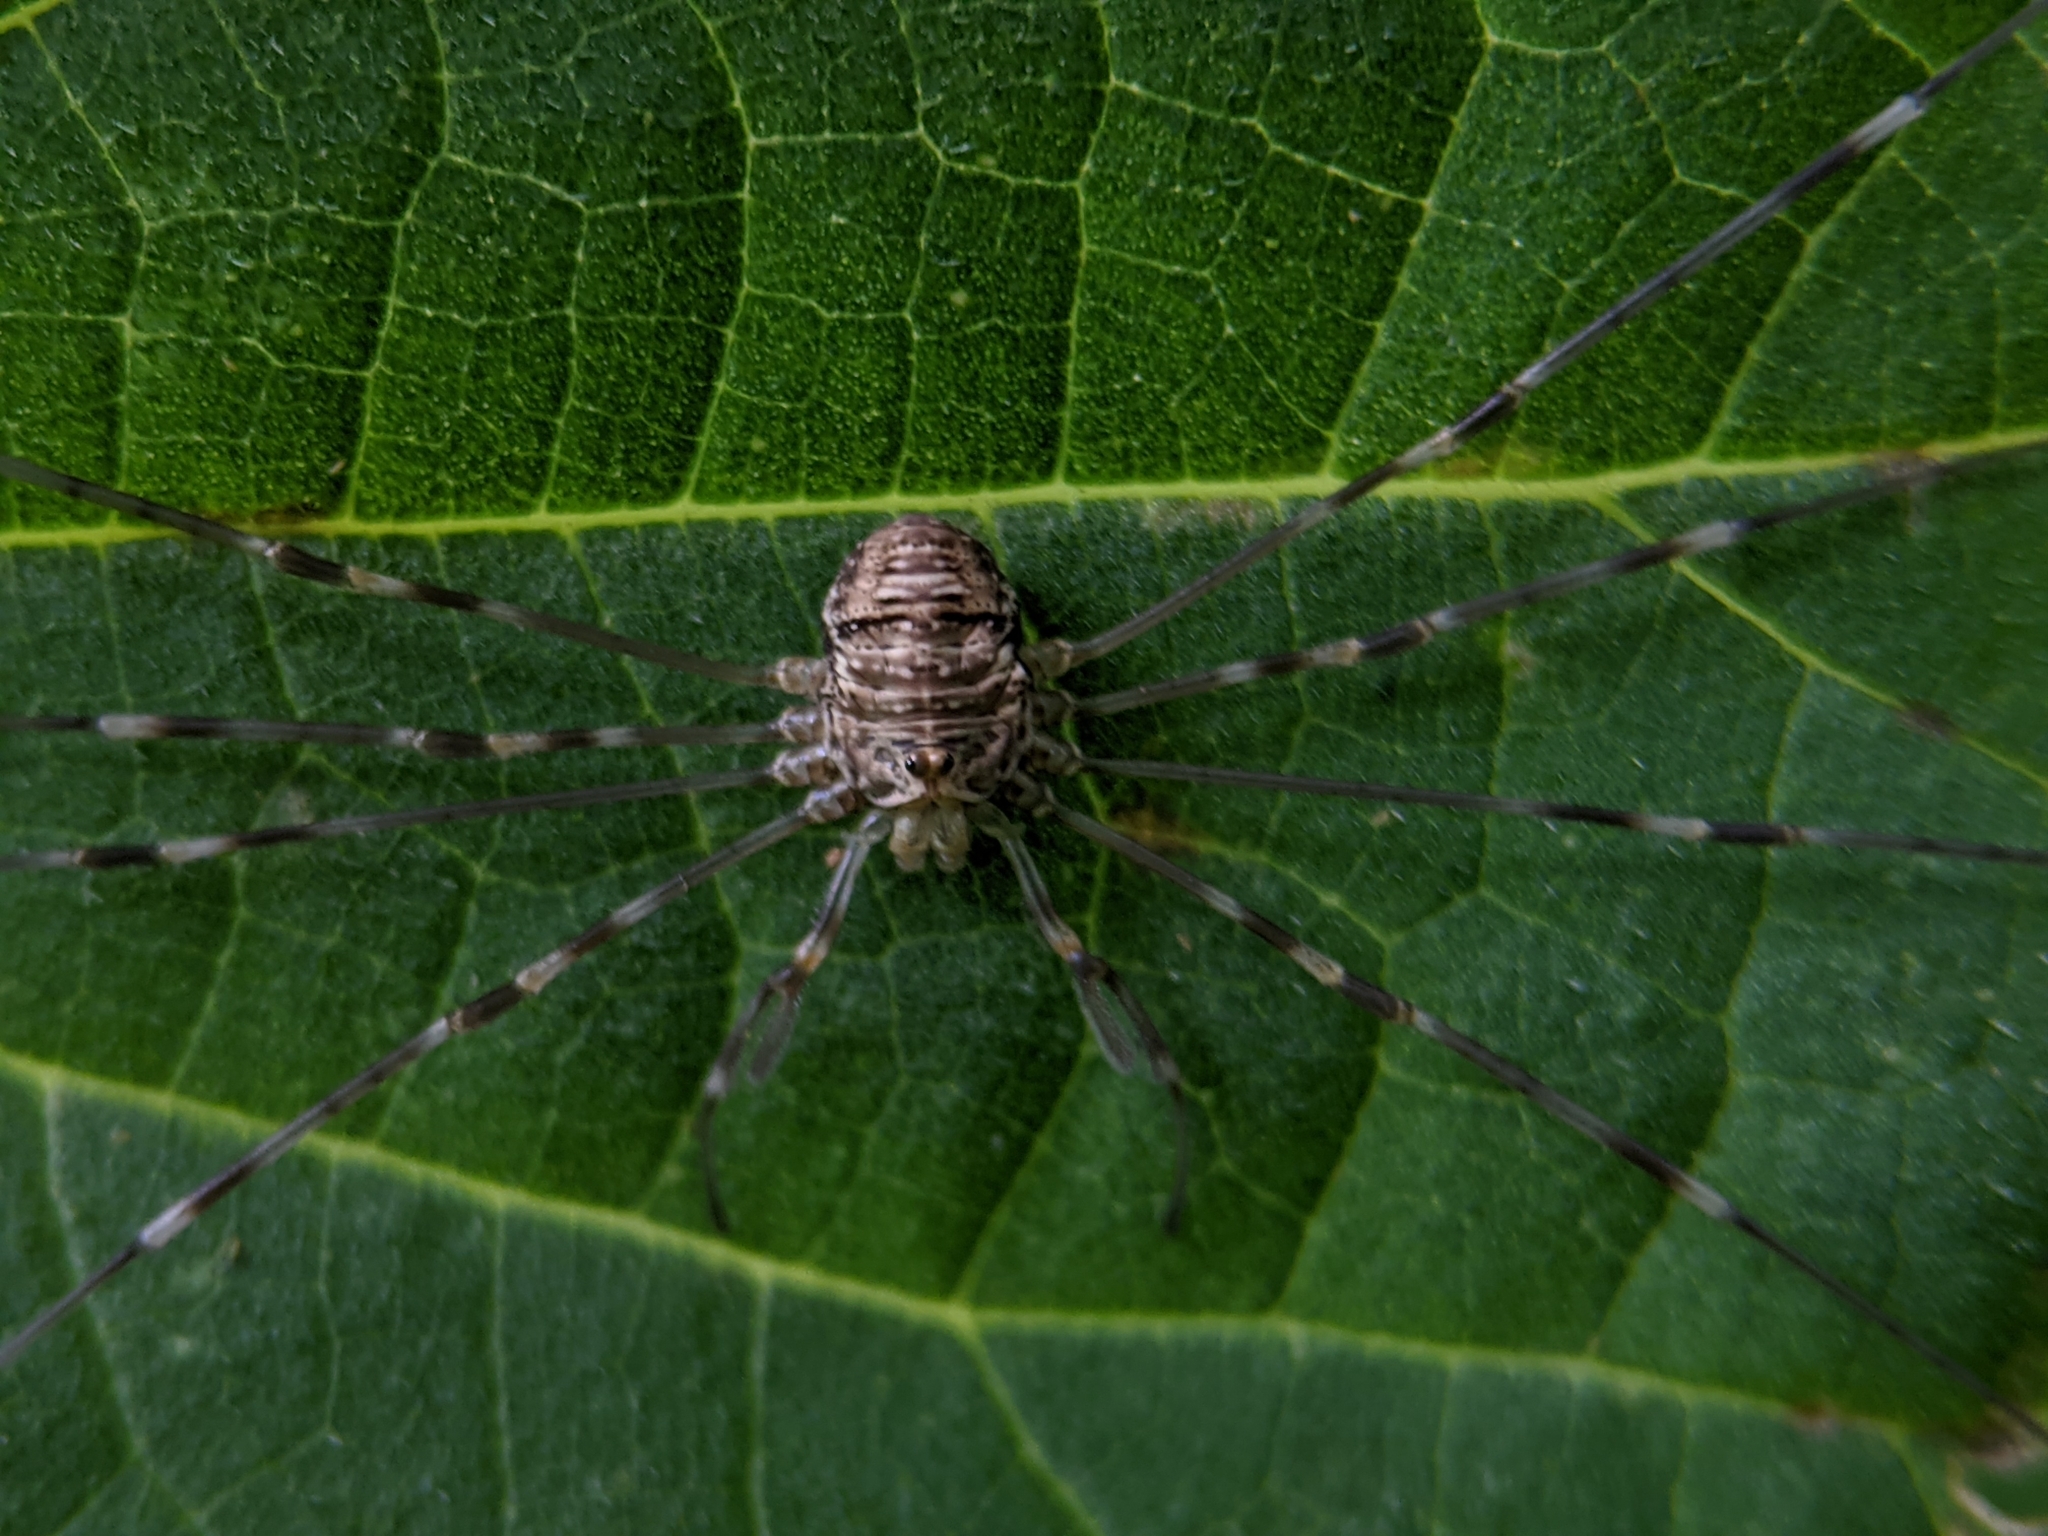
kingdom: Animalia
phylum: Arthropoda
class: Arachnida
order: Opiliones
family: Phalangiidae
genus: Dicranopalpus
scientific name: Dicranopalpus ramosus
